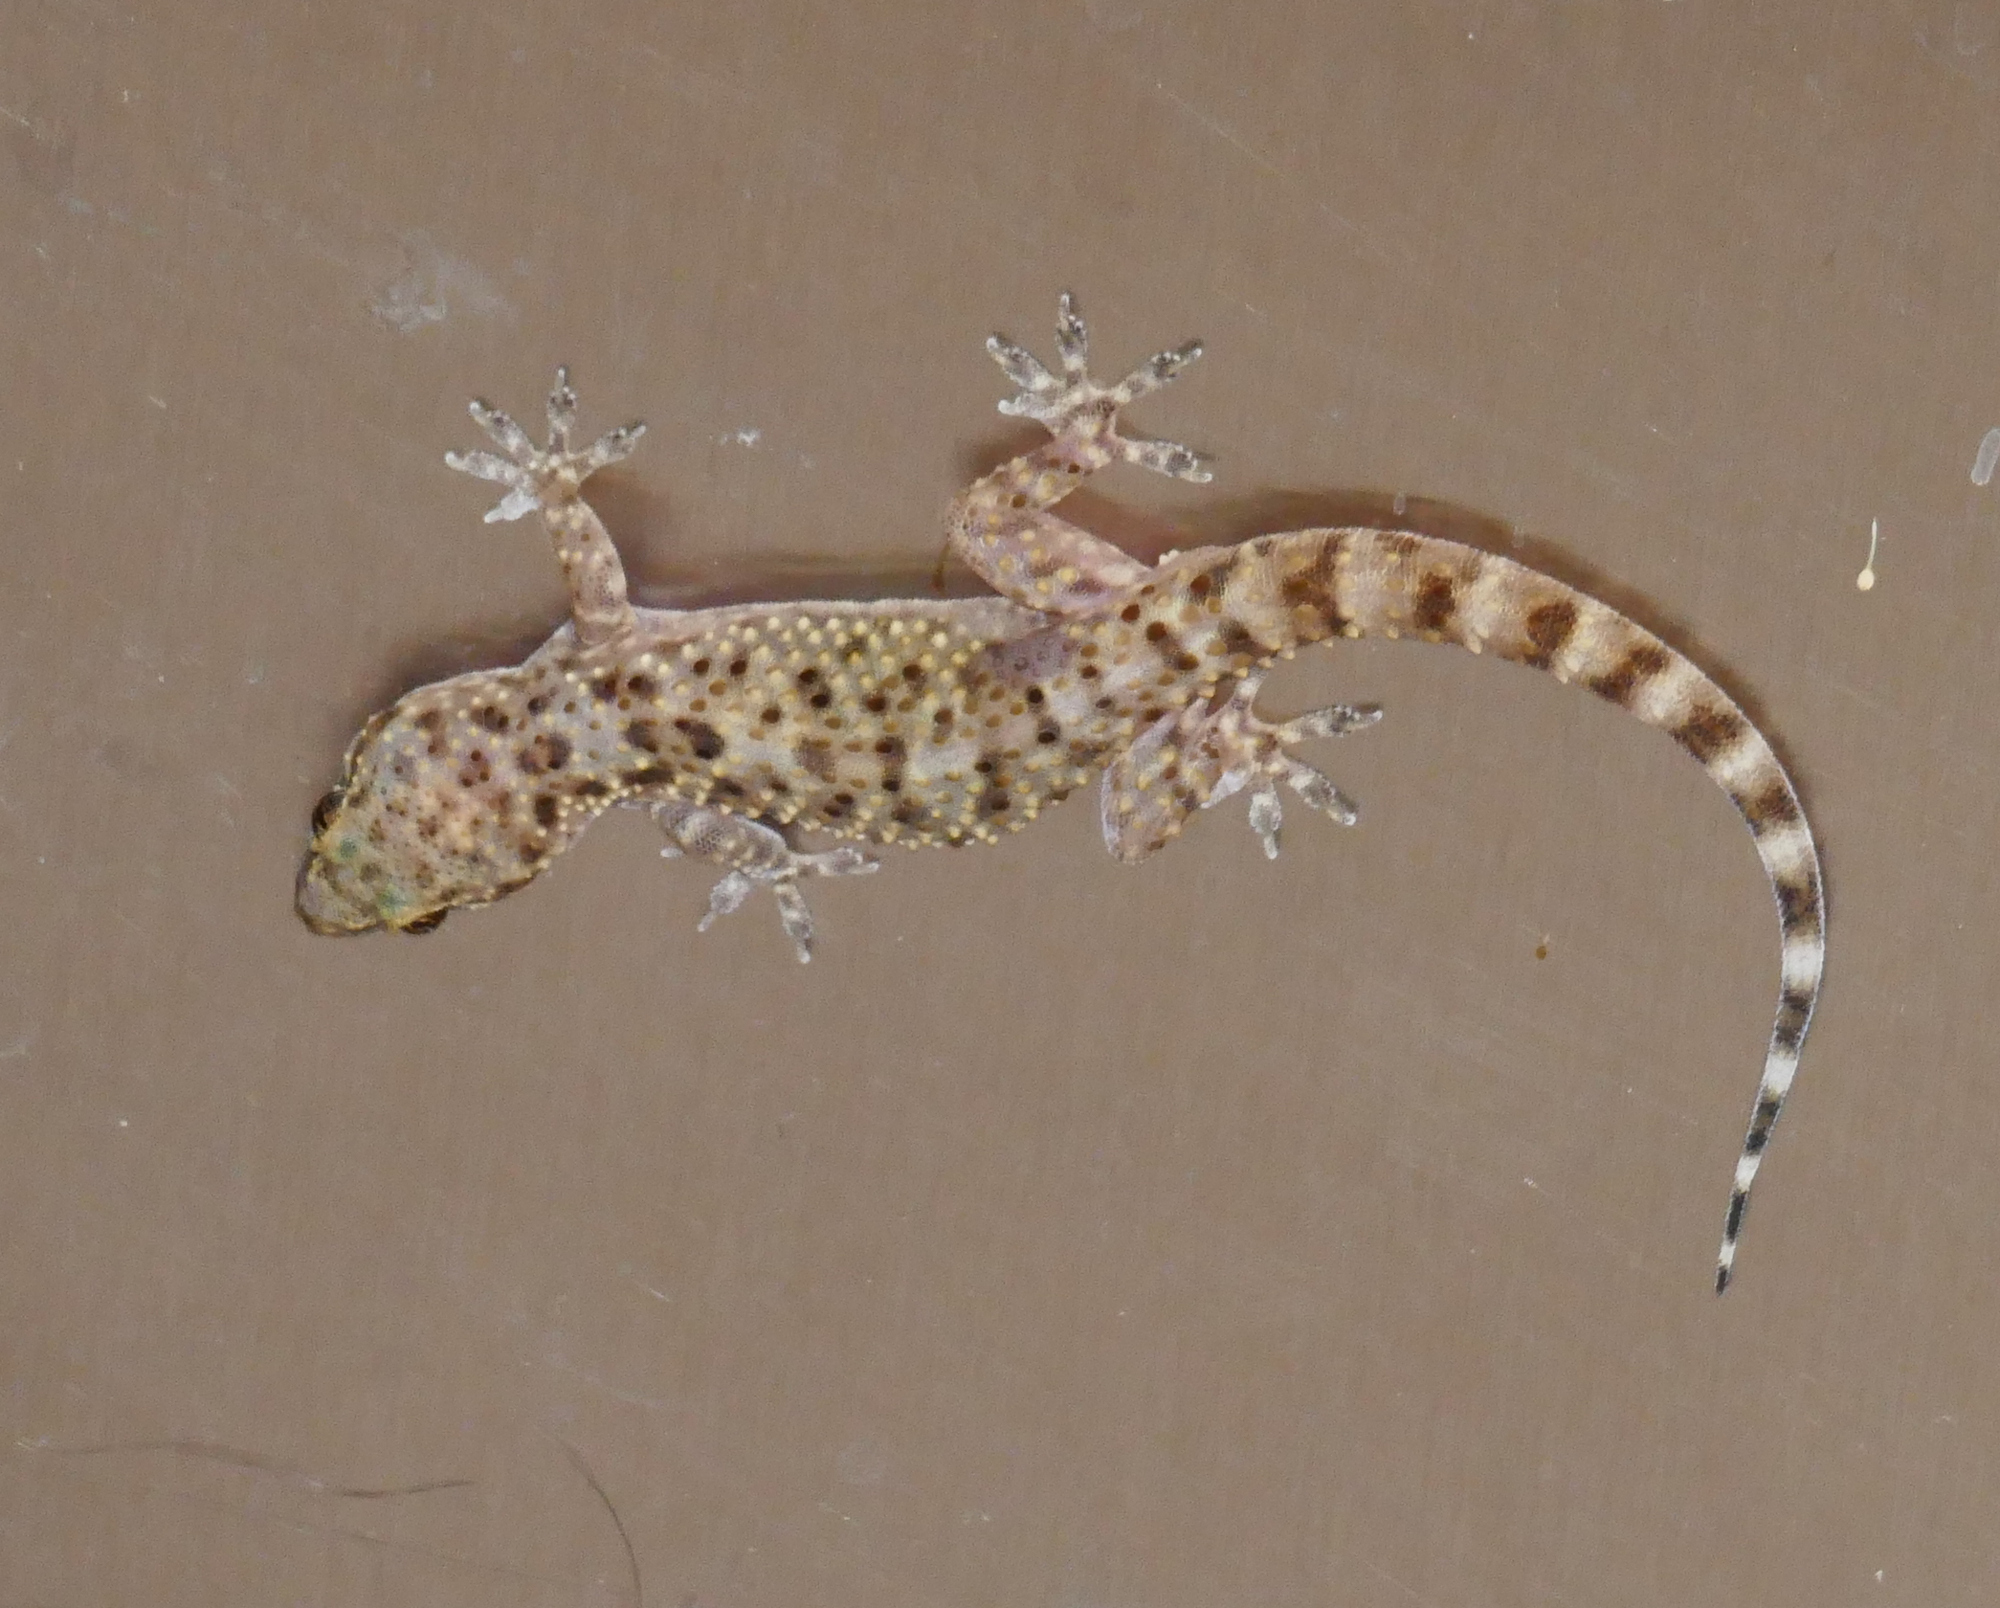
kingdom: Animalia
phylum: Chordata
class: Squamata
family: Gekkonidae
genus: Hemidactylus
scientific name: Hemidactylus turcicus
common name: Turkish gecko
